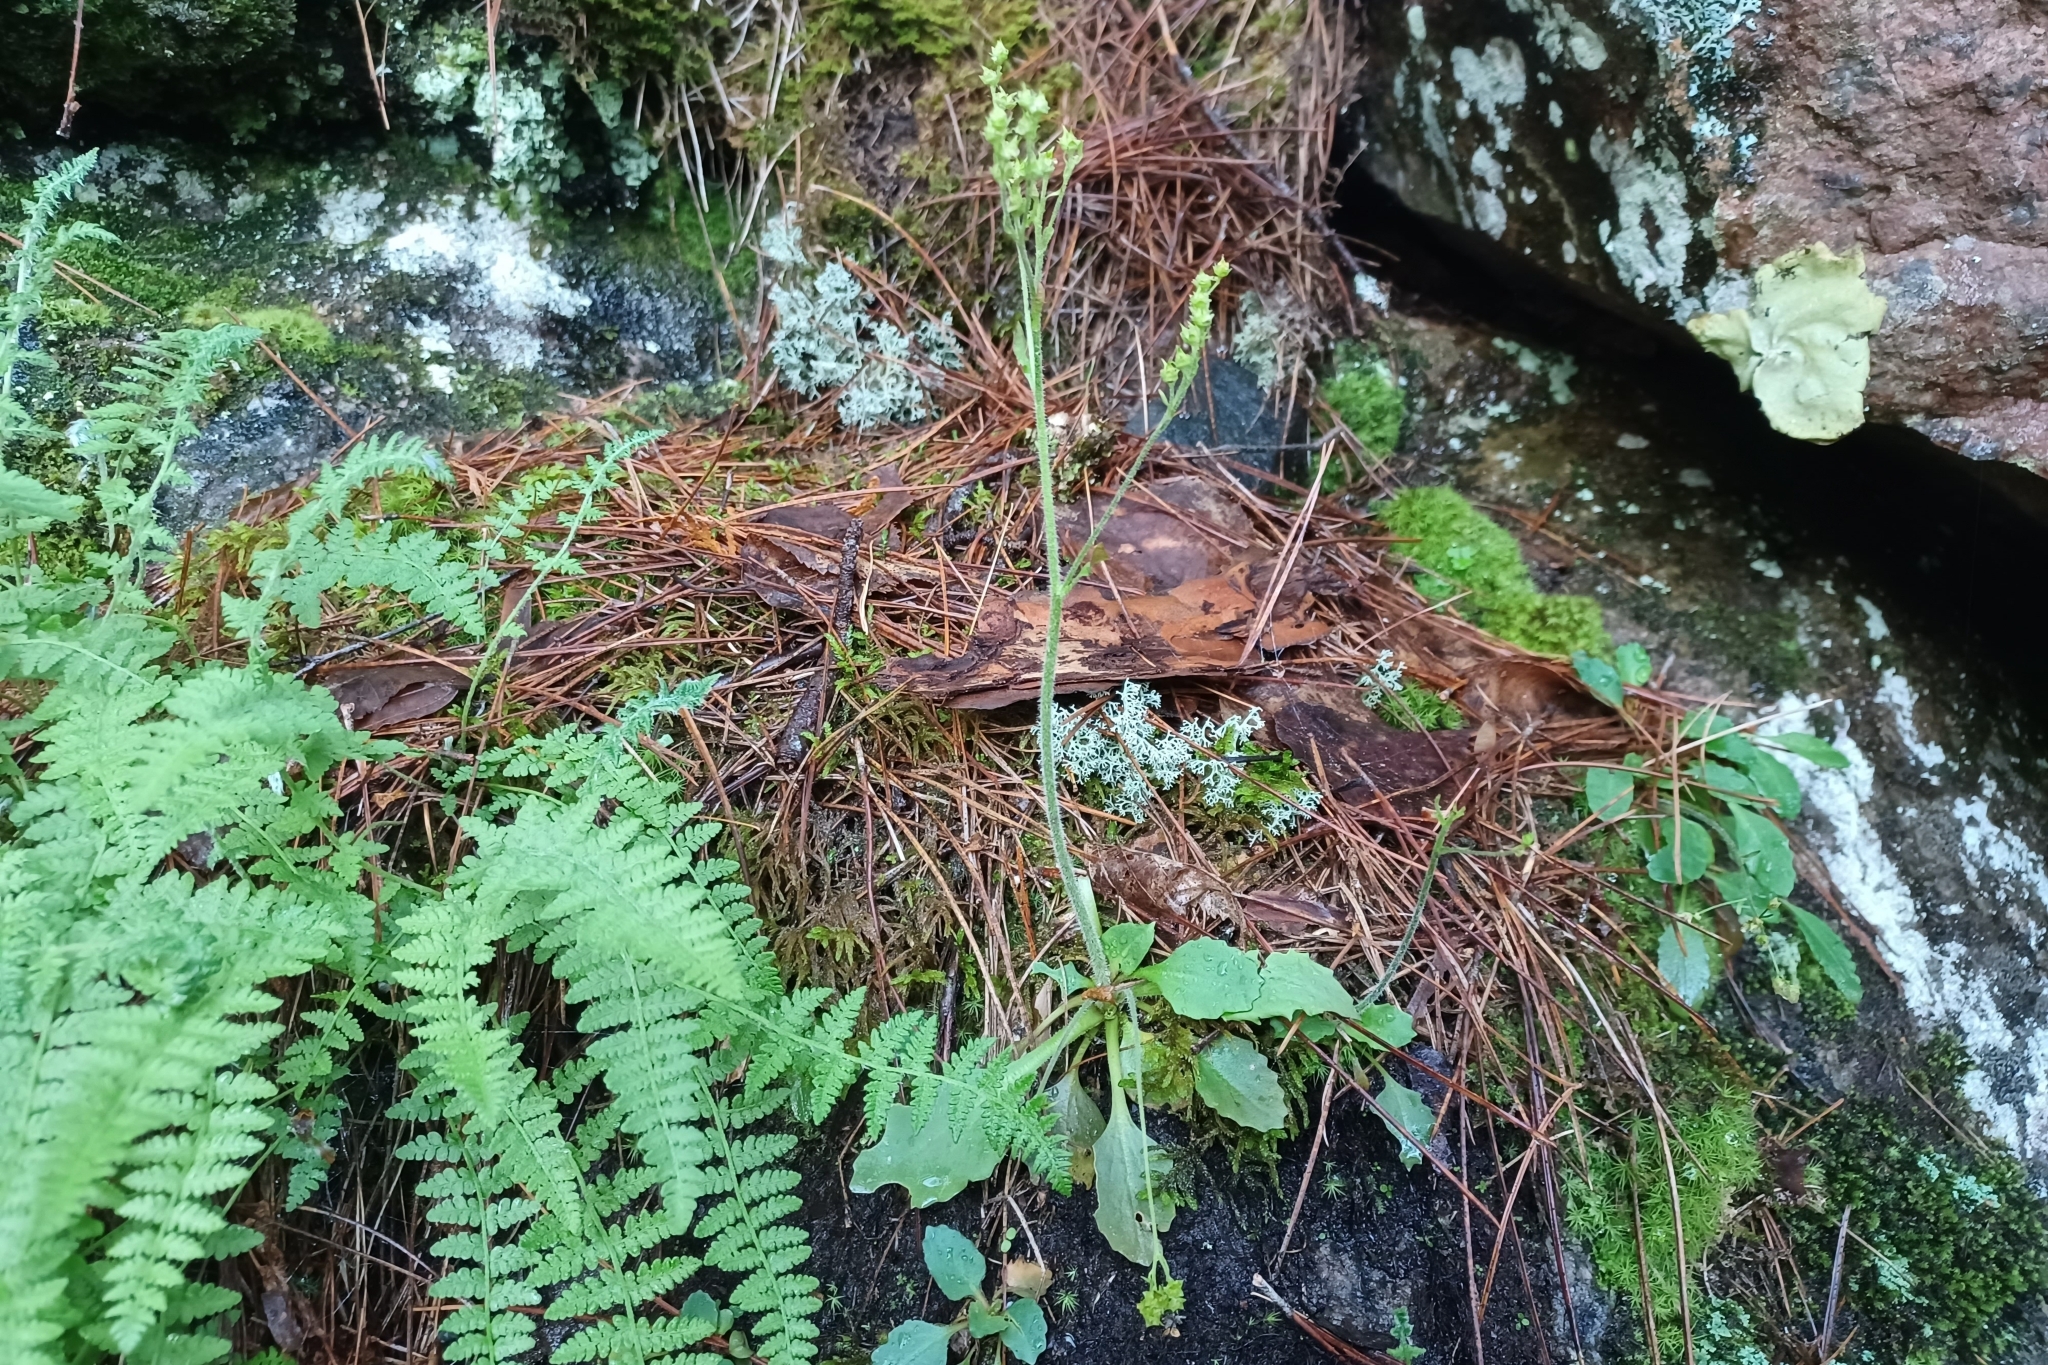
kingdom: Plantae
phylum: Tracheophyta
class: Magnoliopsida
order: Saxifragales
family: Saxifragaceae
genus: Micranthes
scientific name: Micranthes virginiensis
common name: Early saxifrage
